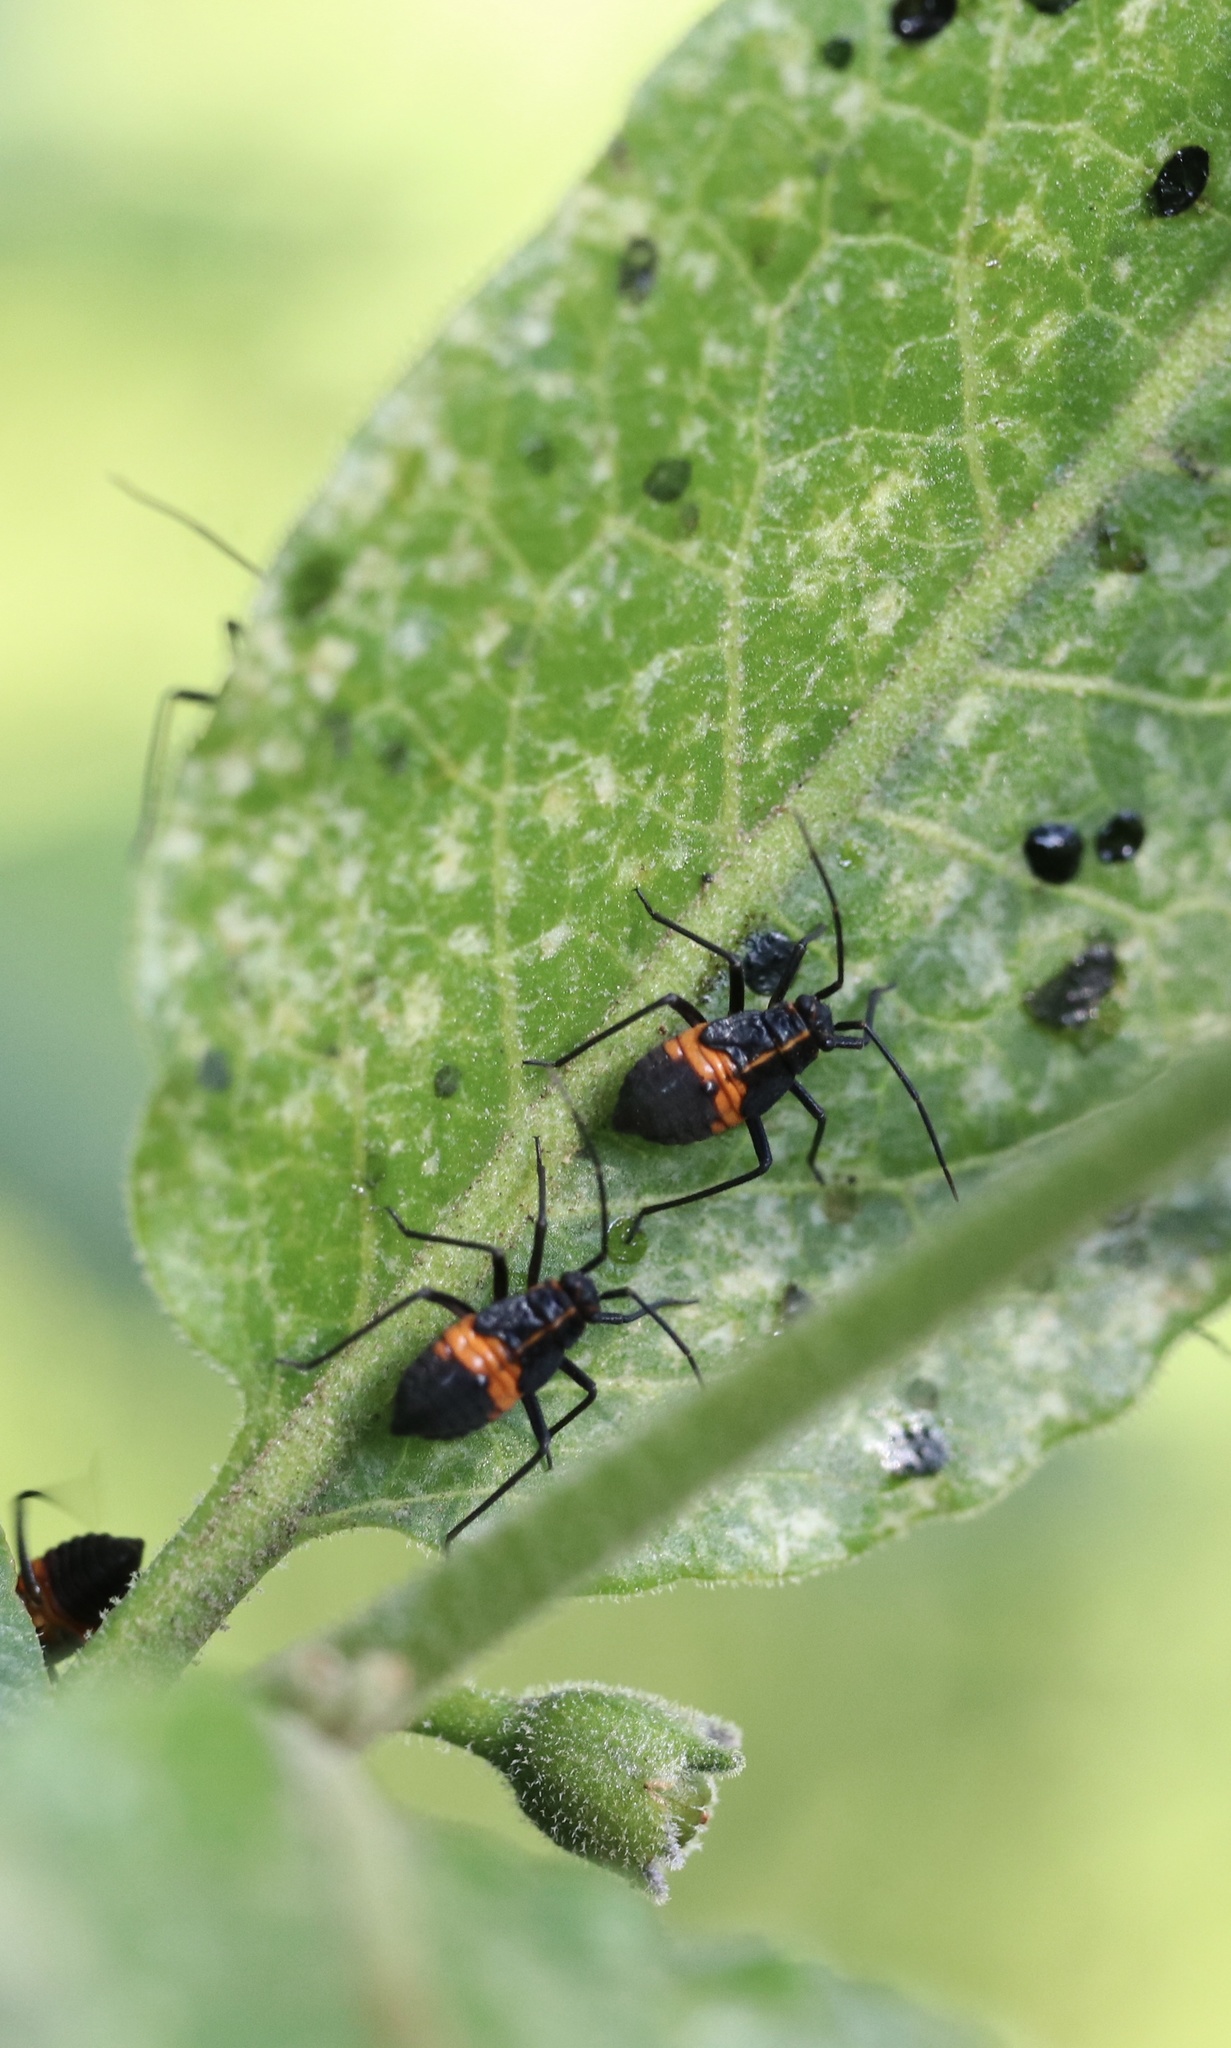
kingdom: Animalia
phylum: Arthropoda
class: Insecta
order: Hemiptera
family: Miridae
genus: Eurylomata
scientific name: Eurylomata picturata
